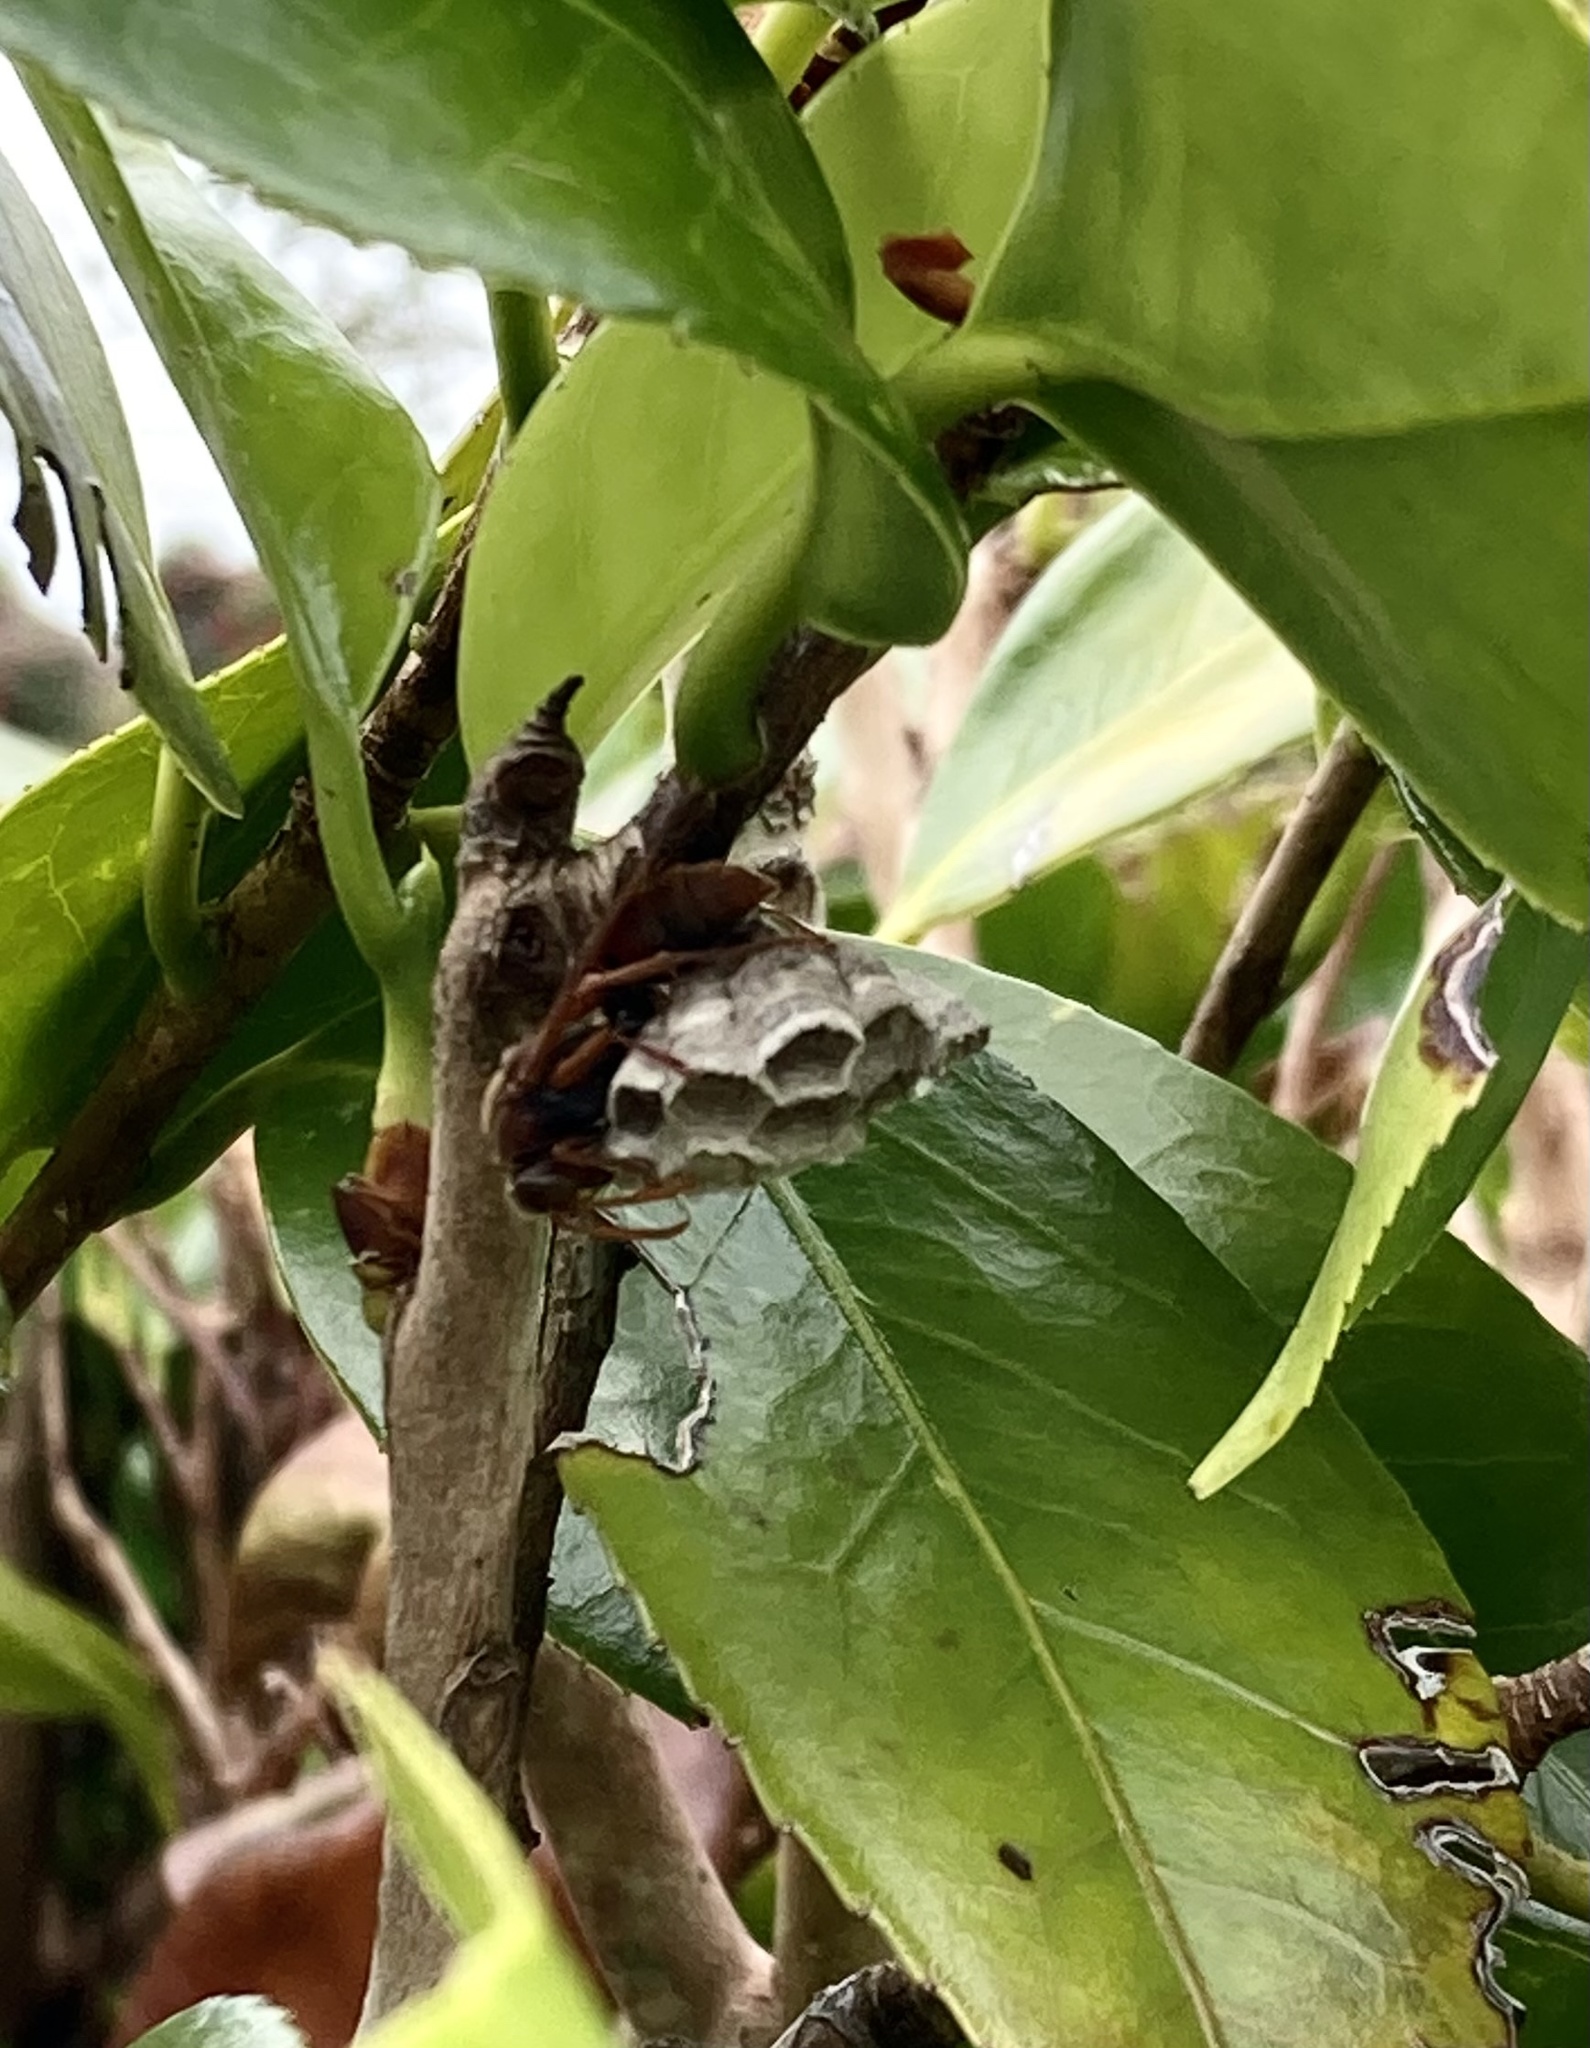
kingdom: Animalia
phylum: Arthropoda
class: Insecta
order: Hymenoptera
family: Eumenidae
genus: Polistes
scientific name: Polistes humilis
